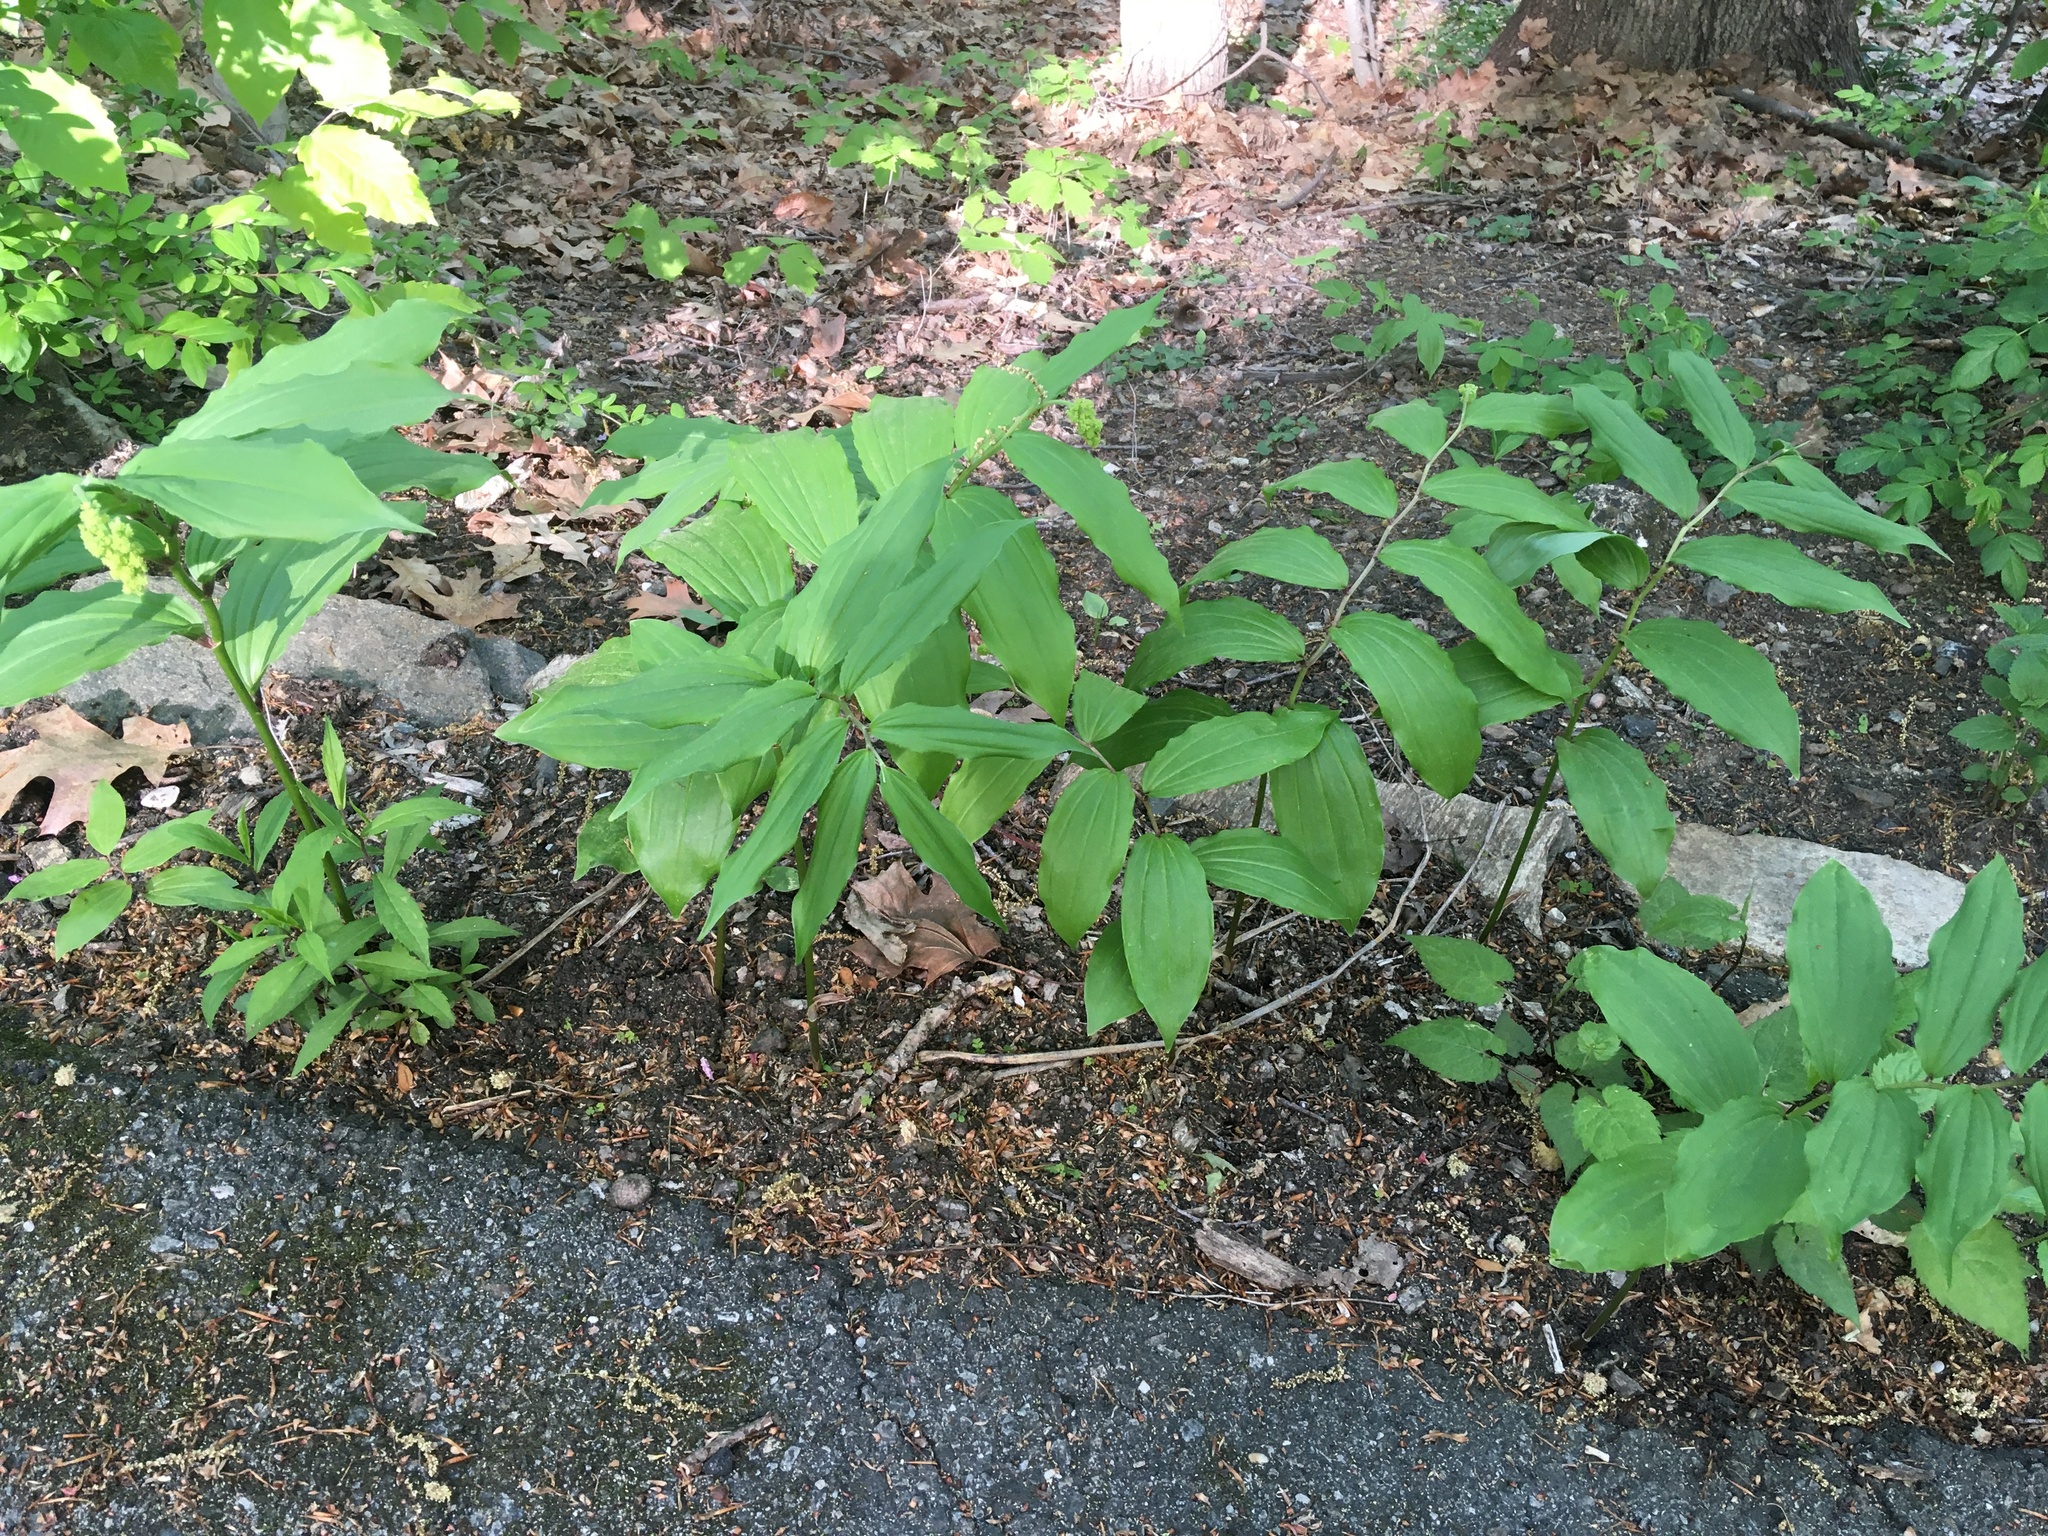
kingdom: Plantae
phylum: Tracheophyta
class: Liliopsida
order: Asparagales
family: Asparagaceae
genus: Maianthemum
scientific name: Maianthemum racemosum
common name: False spikenard
